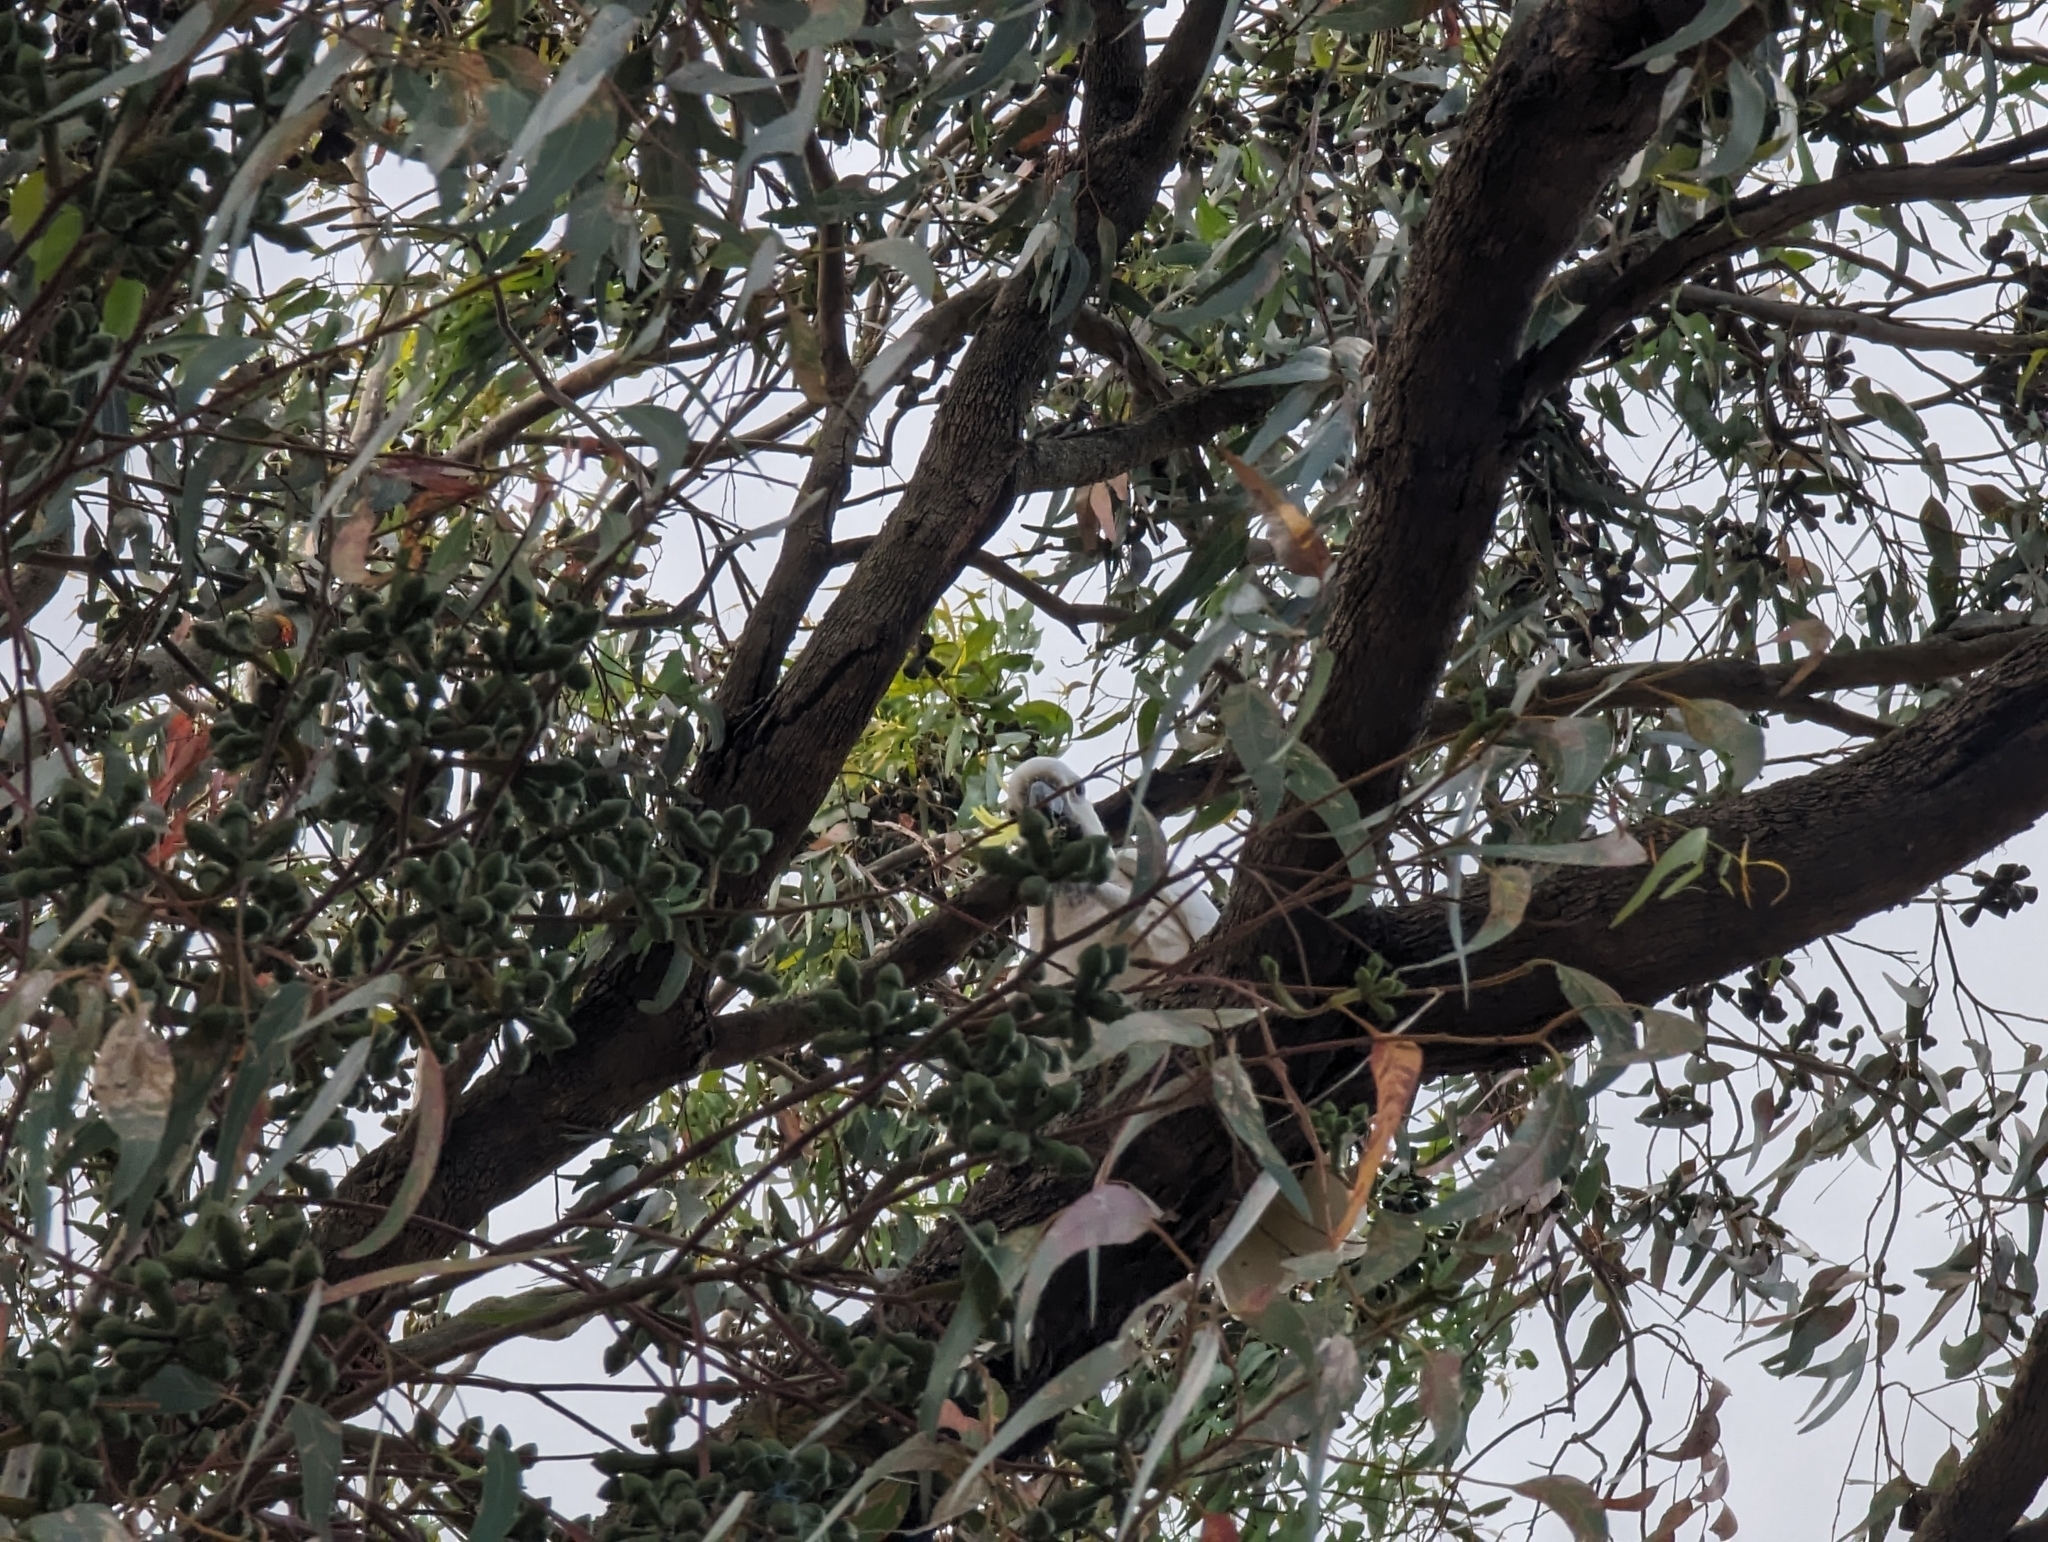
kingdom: Animalia
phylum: Chordata
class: Aves
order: Psittaciformes
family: Psittacidae
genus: Cacatua
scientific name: Cacatua galerita
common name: Sulphur-crested cockatoo
